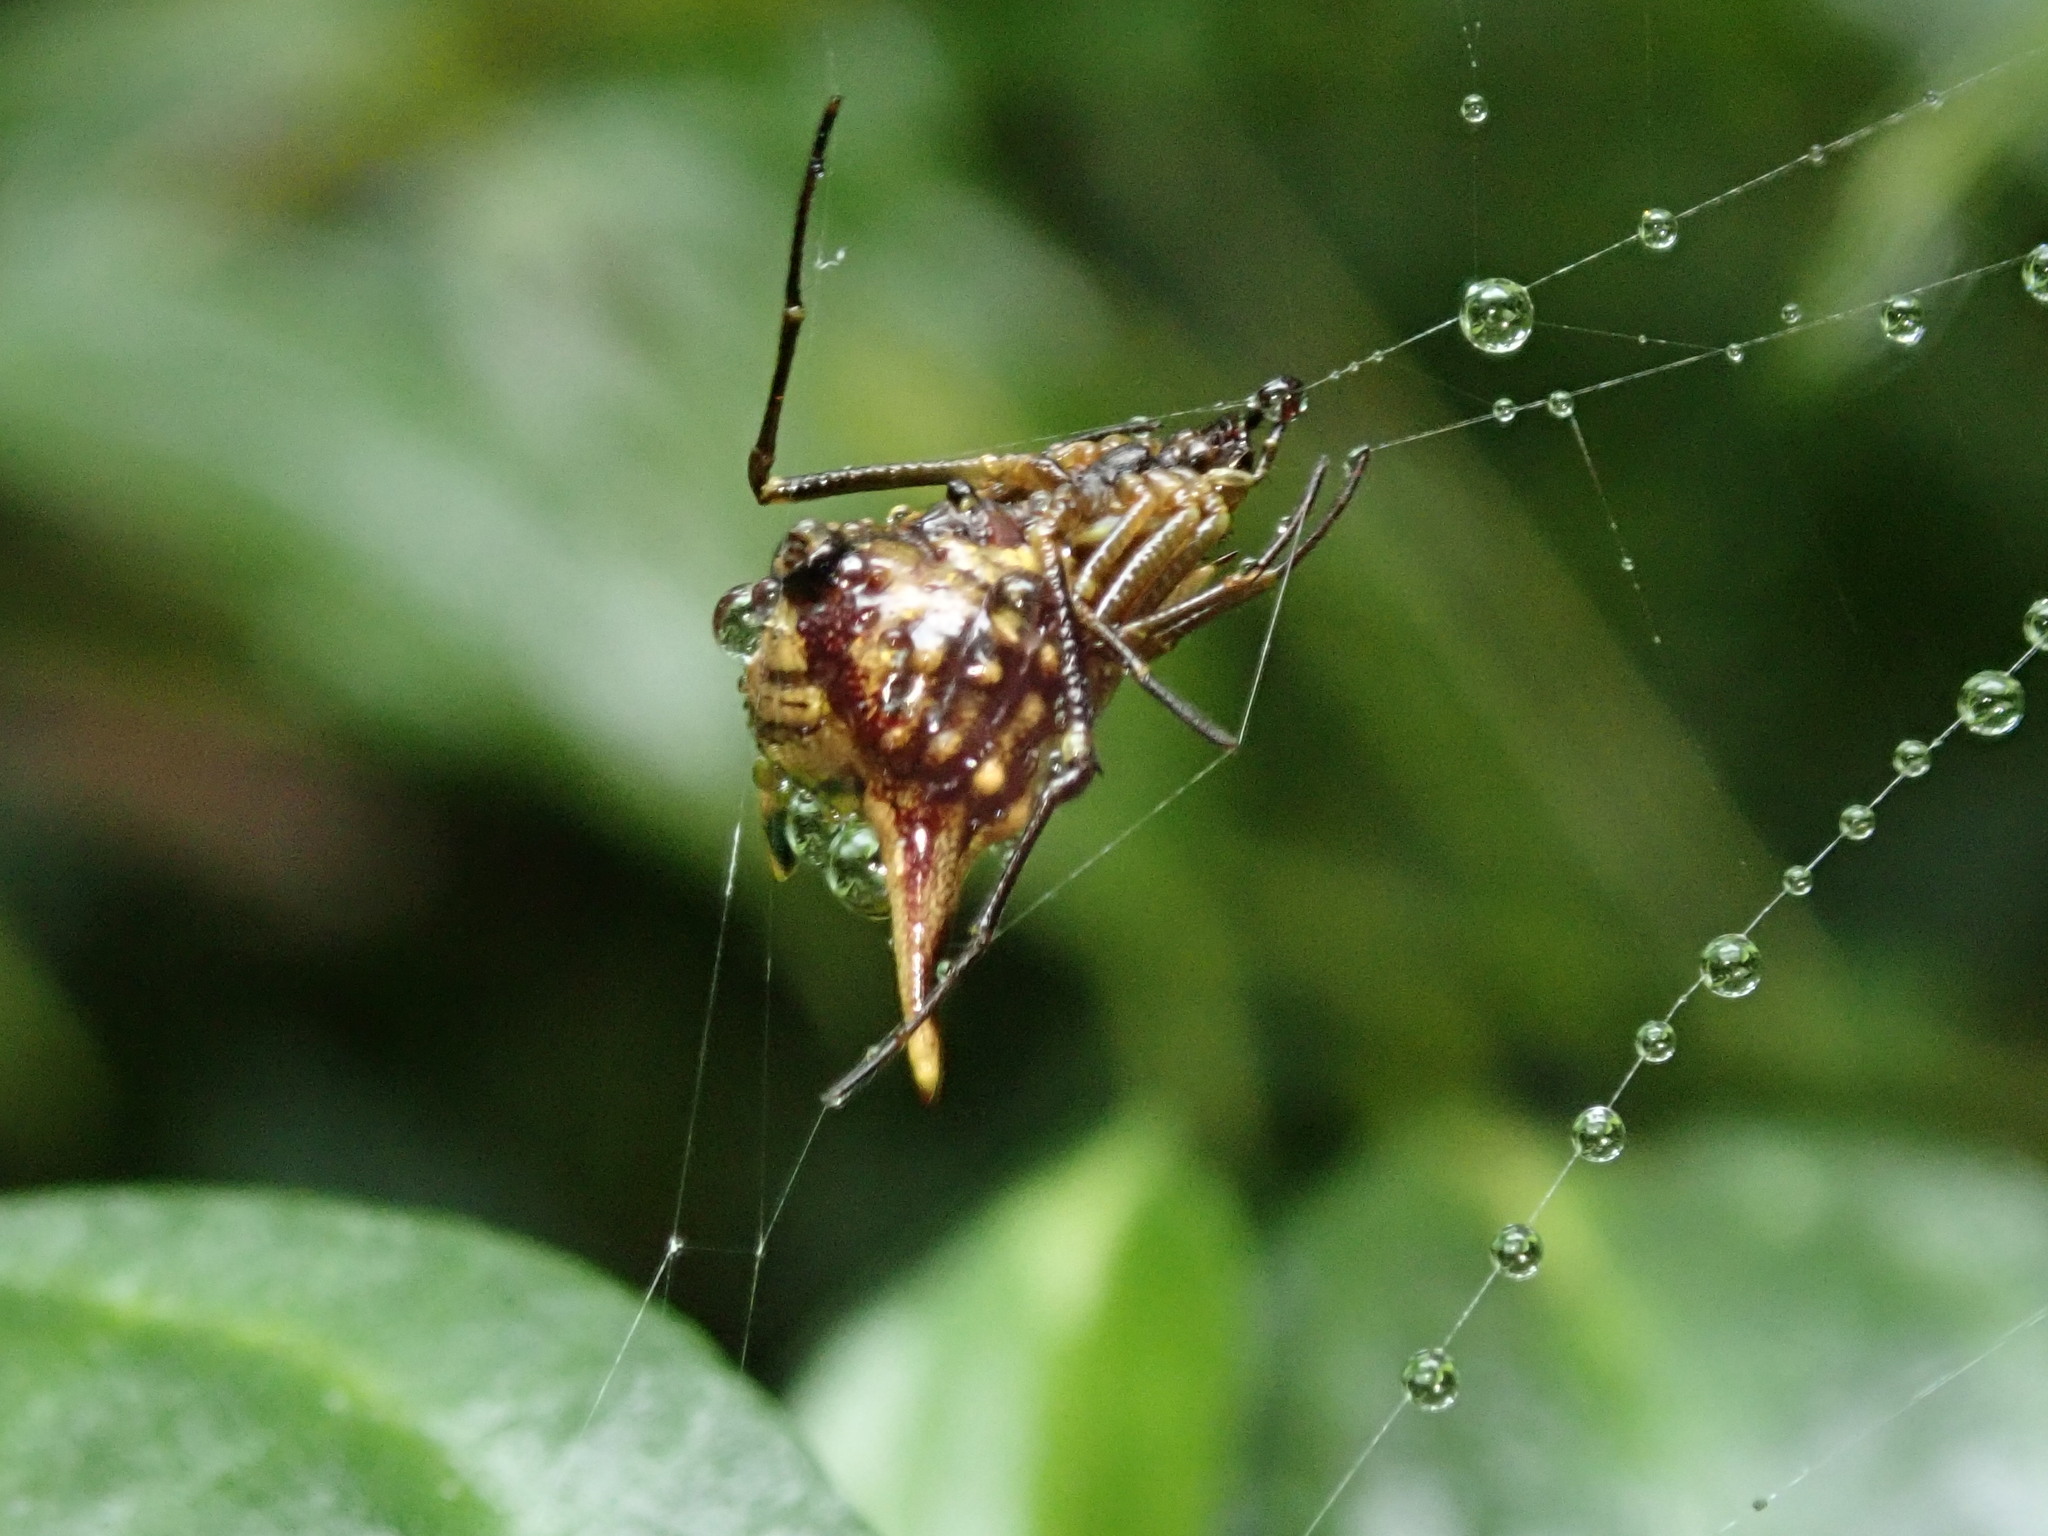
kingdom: Animalia
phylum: Arthropoda
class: Arachnida
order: Araneae
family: Araneidae
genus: Micrathena
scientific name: Micrathena acuta
